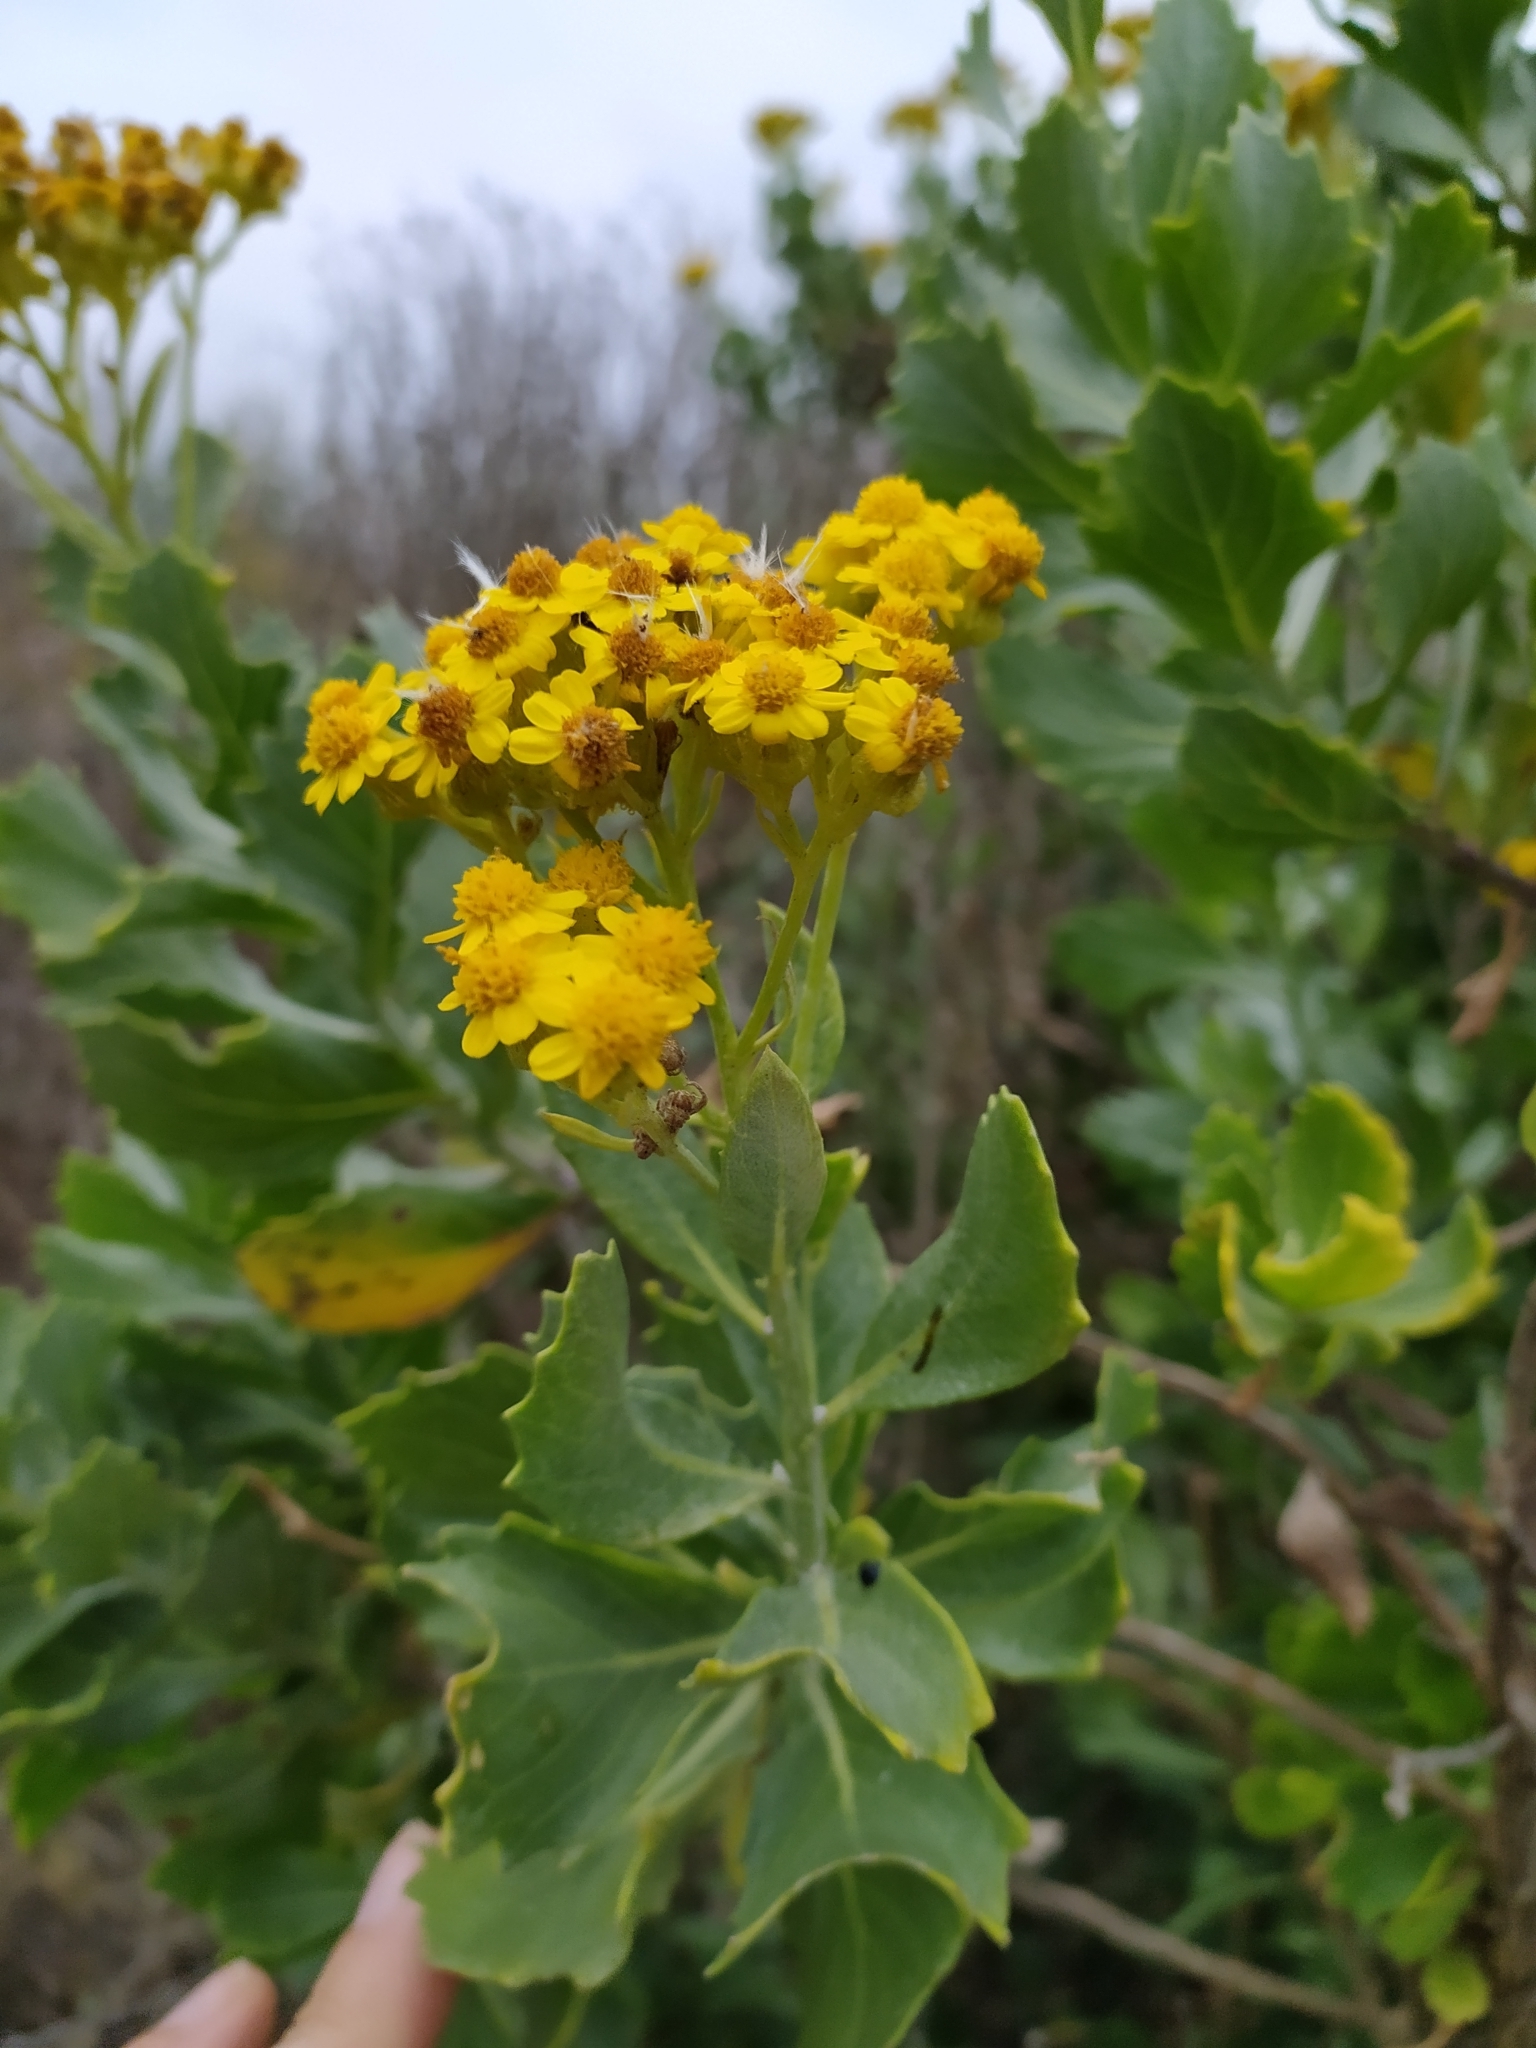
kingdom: Plantae
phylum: Tracheophyta
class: Magnoliopsida
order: Asterales
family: Asteraceae
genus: Senecio
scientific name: Senecio halimifolius
